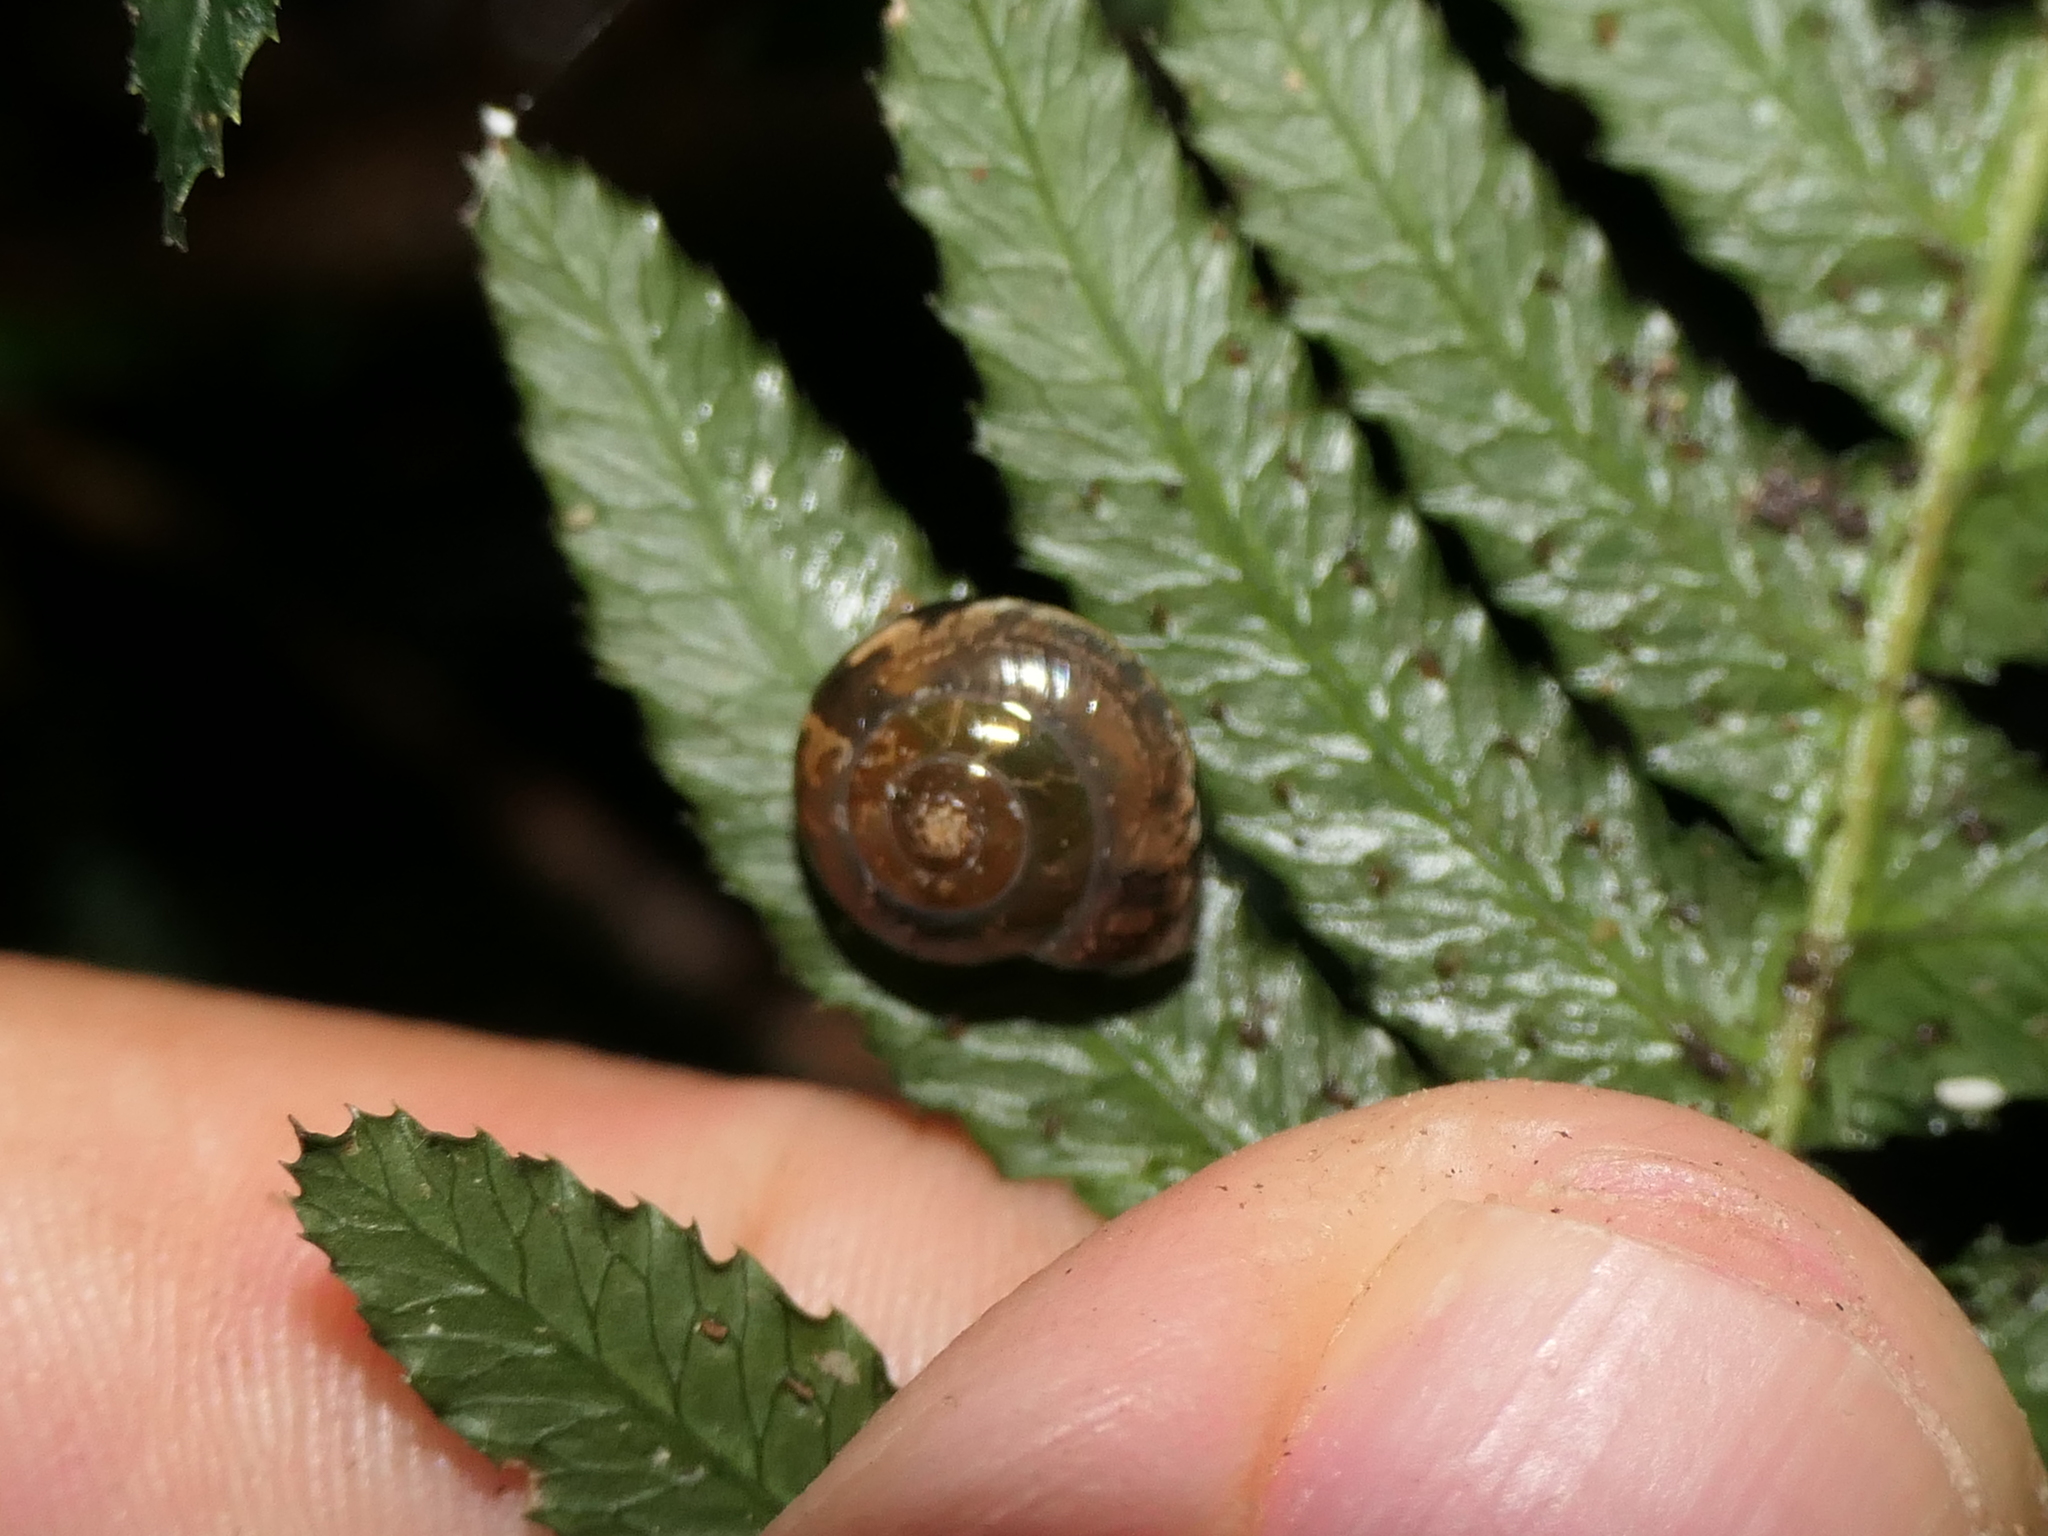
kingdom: Animalia
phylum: Mollusca
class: Gastropoda
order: Stylommatophora
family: Helicarionidae
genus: Nitor
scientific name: Nitor circumcinctus
